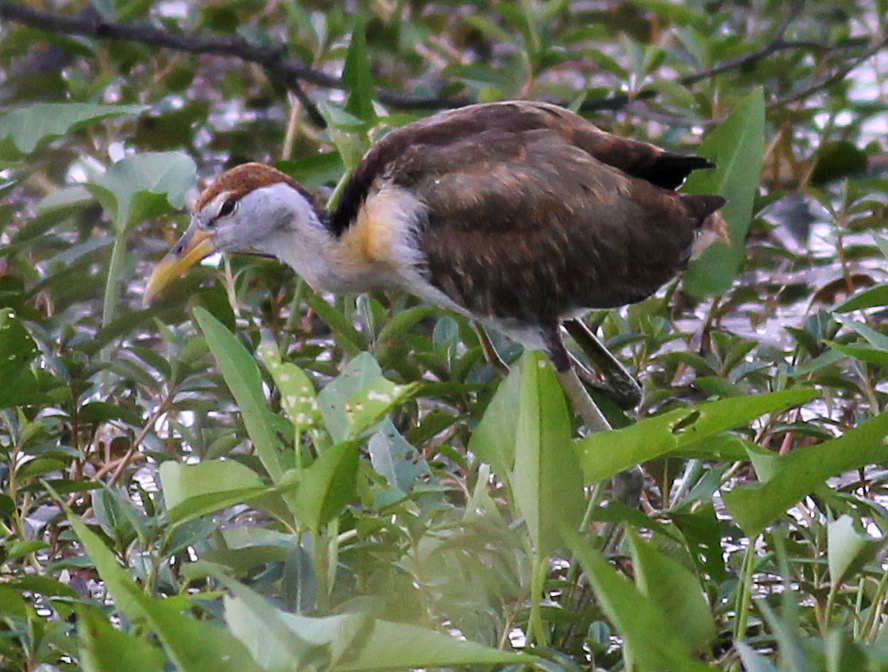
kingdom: Animalia
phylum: Chordata
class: Aves
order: Charadriiformes
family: Jacanidae
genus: Metopidius
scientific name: Metopidius indicus
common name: Bronze-winged jacana
